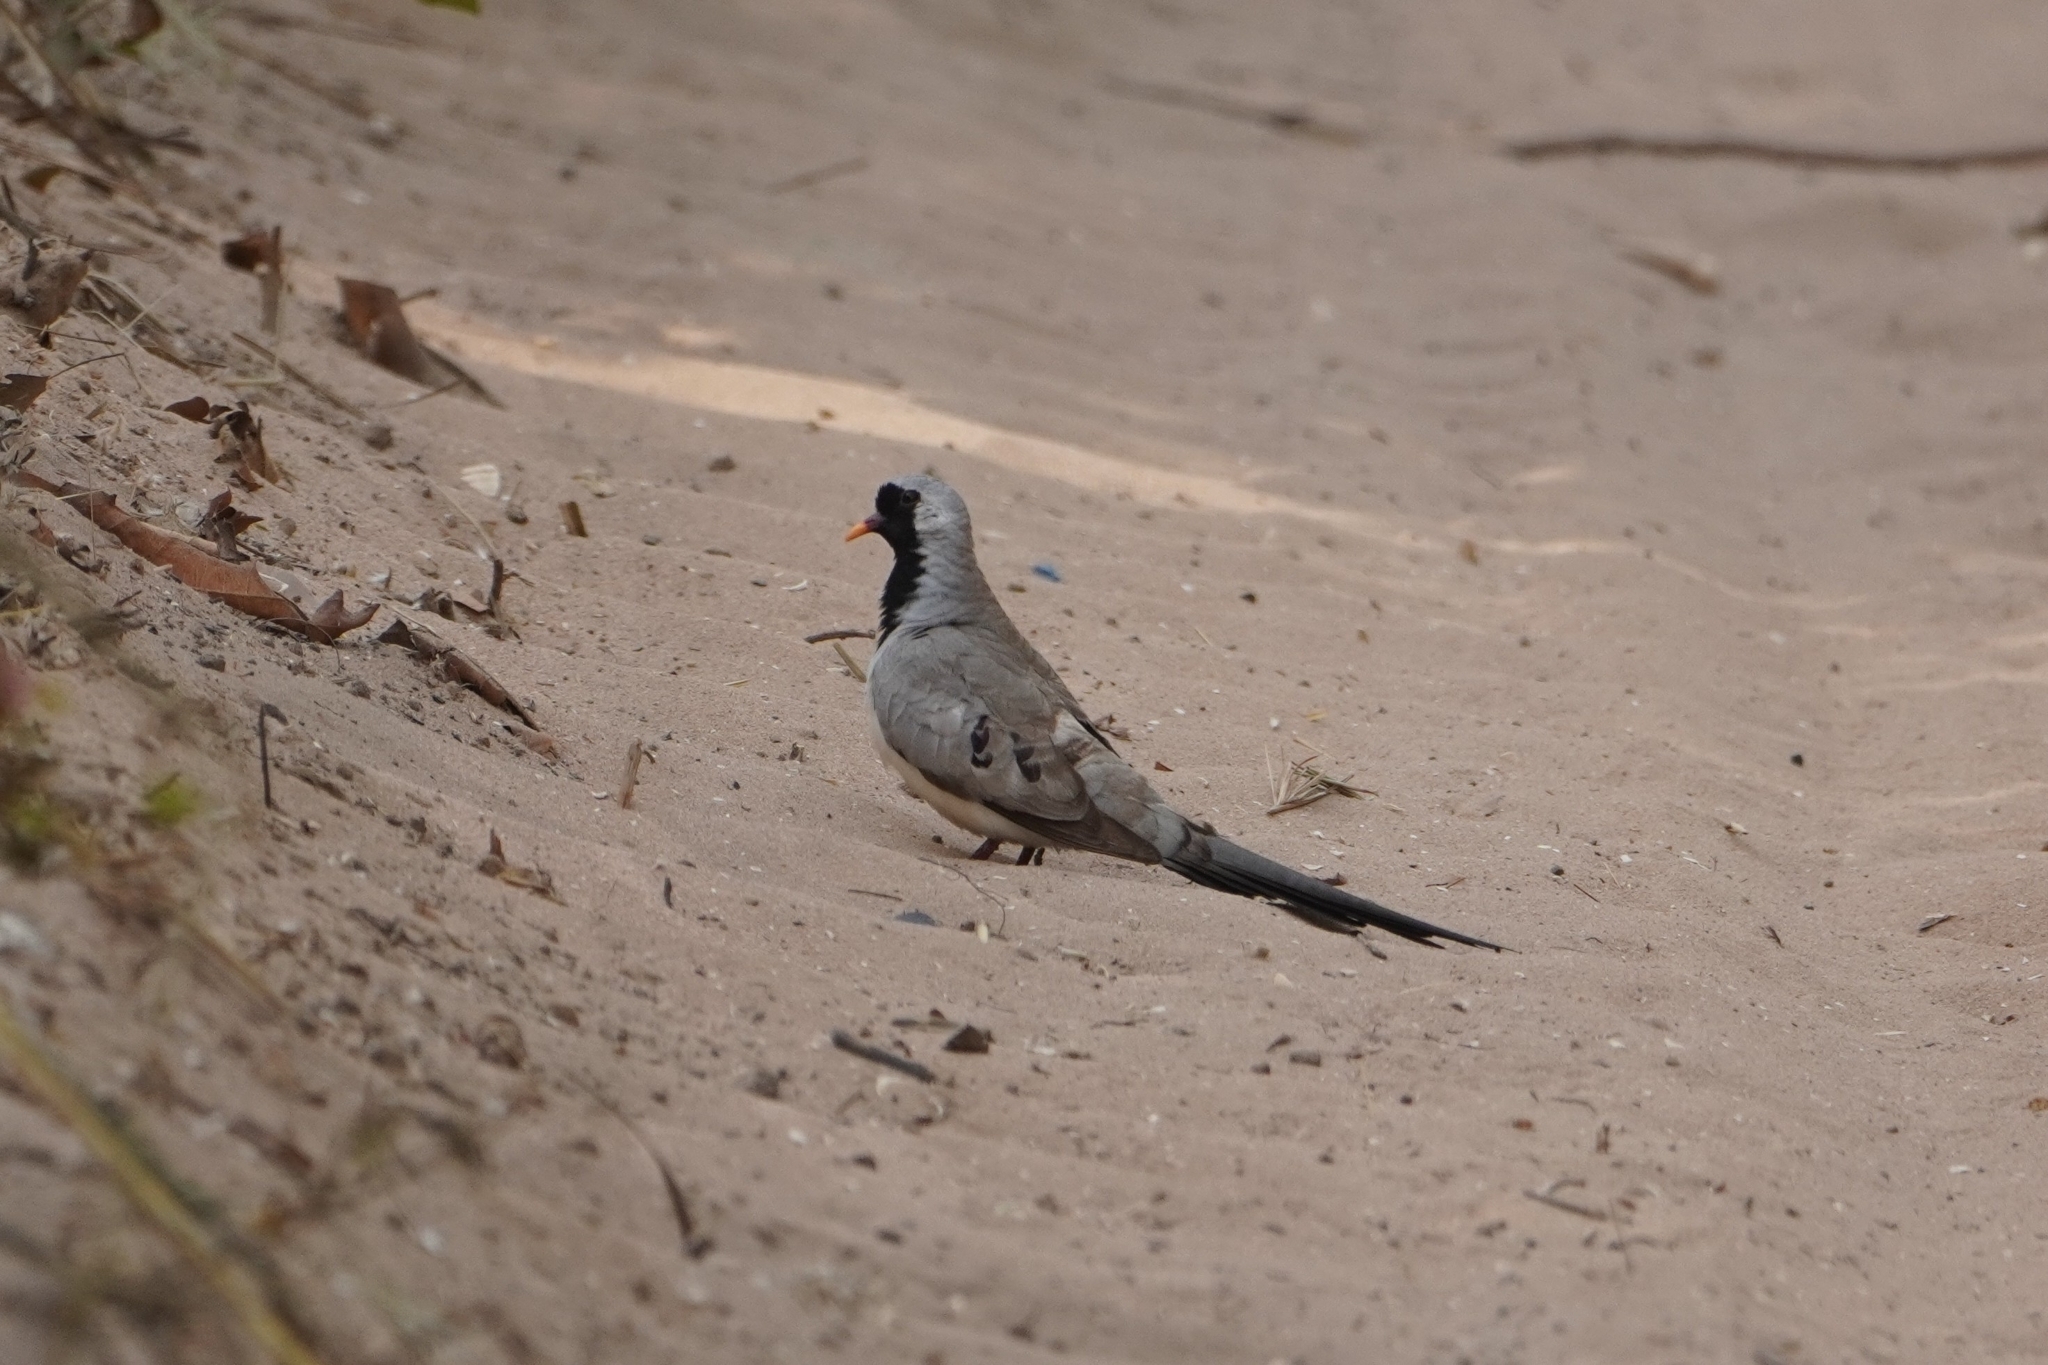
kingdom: Animalia
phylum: Chordata
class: Aves
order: Columbiformes
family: Columbidae
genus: Oena
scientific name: Oena capensis
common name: Namaqua dove
